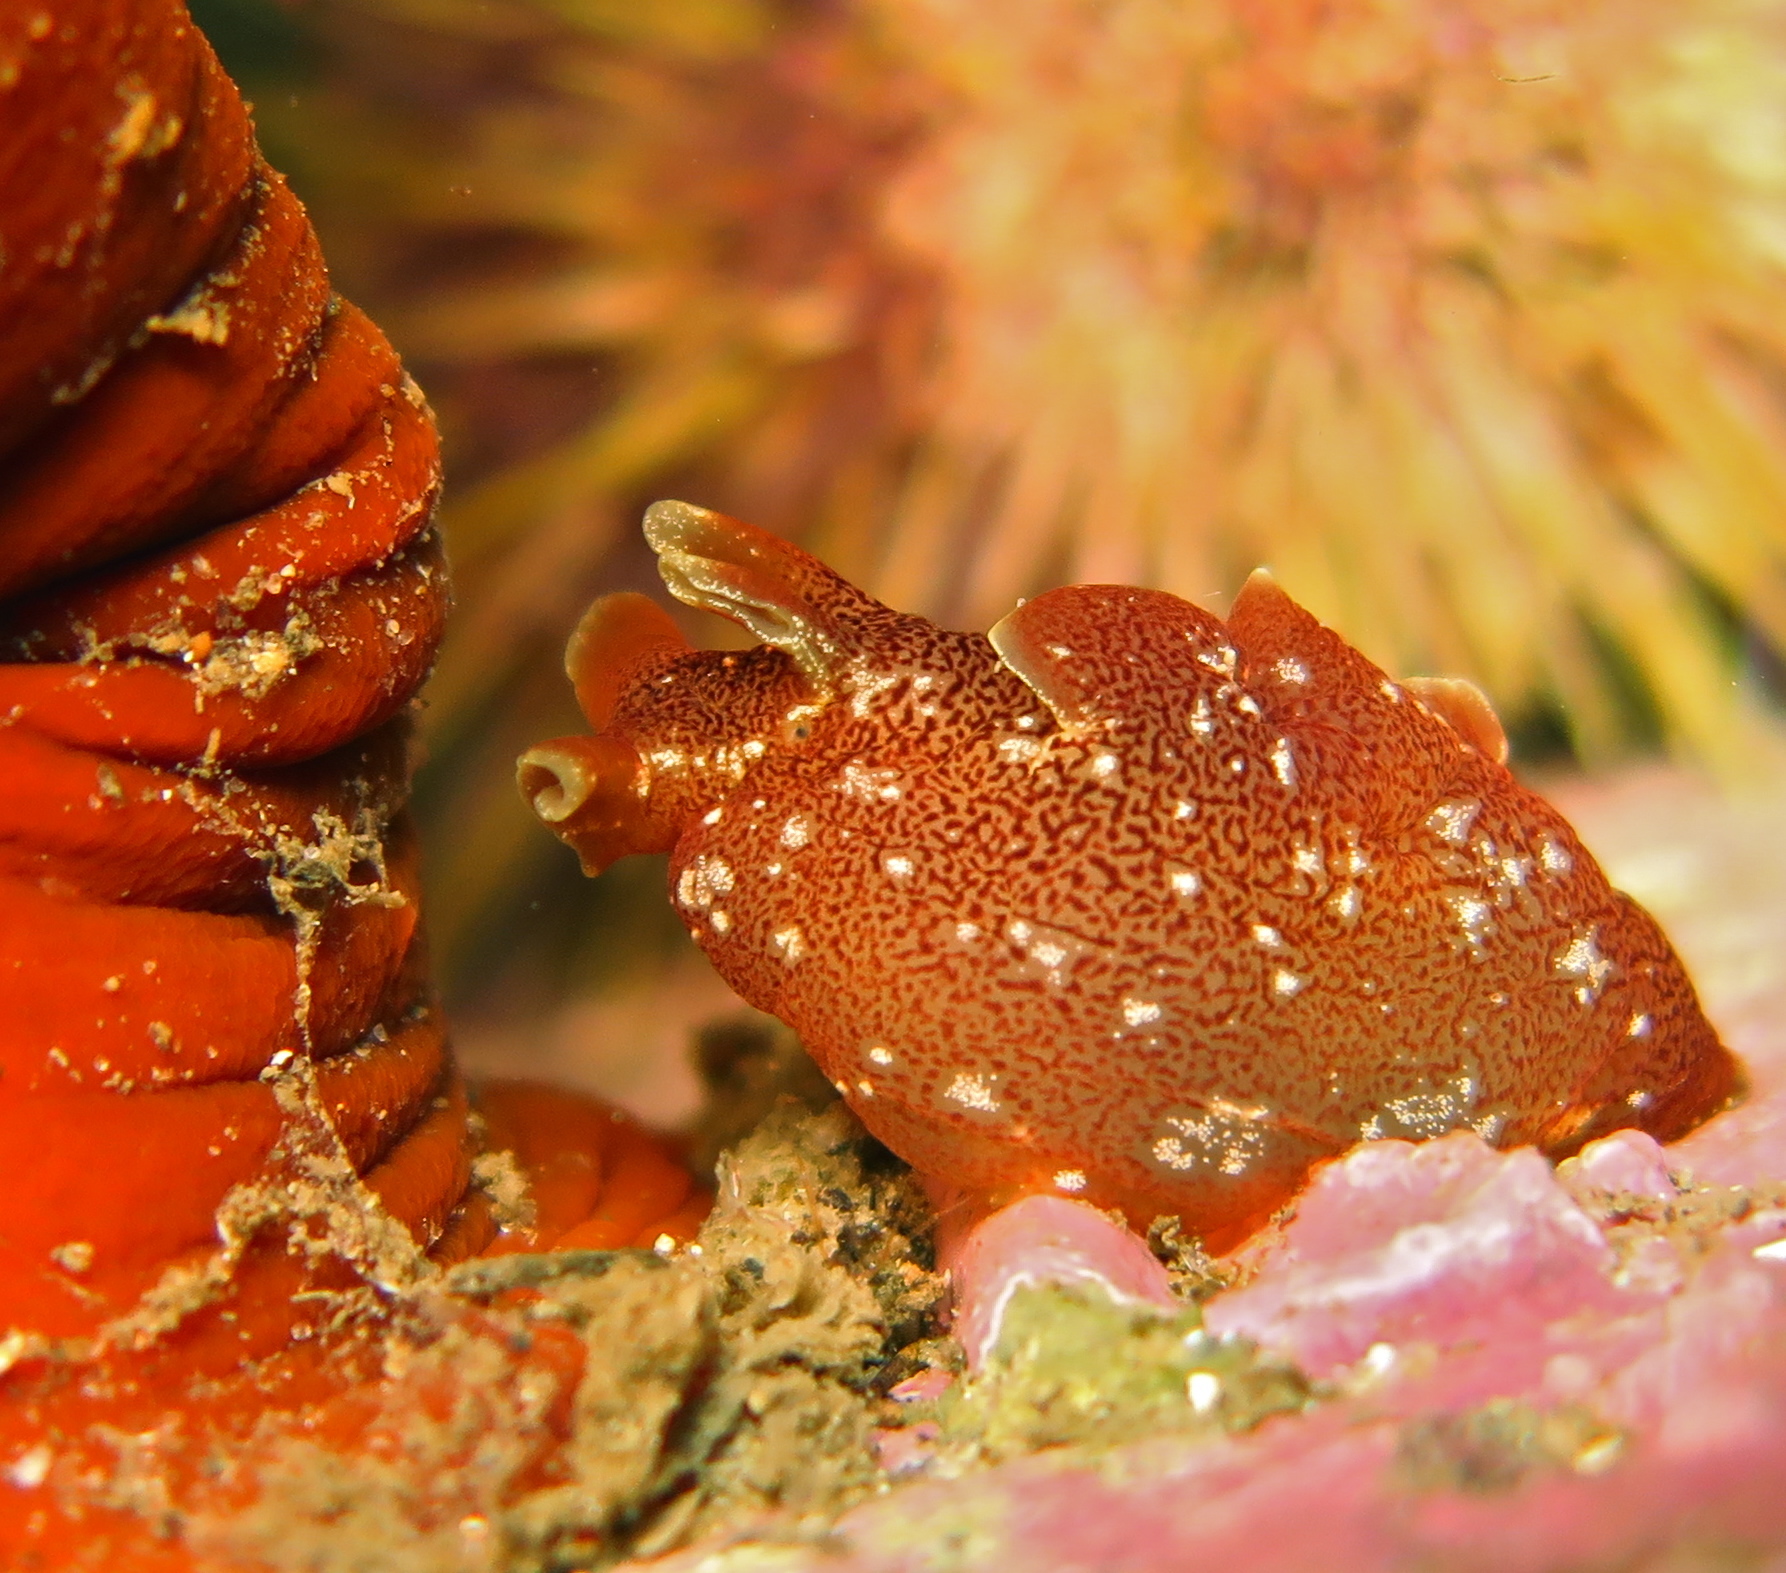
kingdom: Animalia
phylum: Mollusca
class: Gastropoda
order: Aplysiida
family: Aplysiidae
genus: Aplysia
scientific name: Aplysia punctata
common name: Common sea hare
